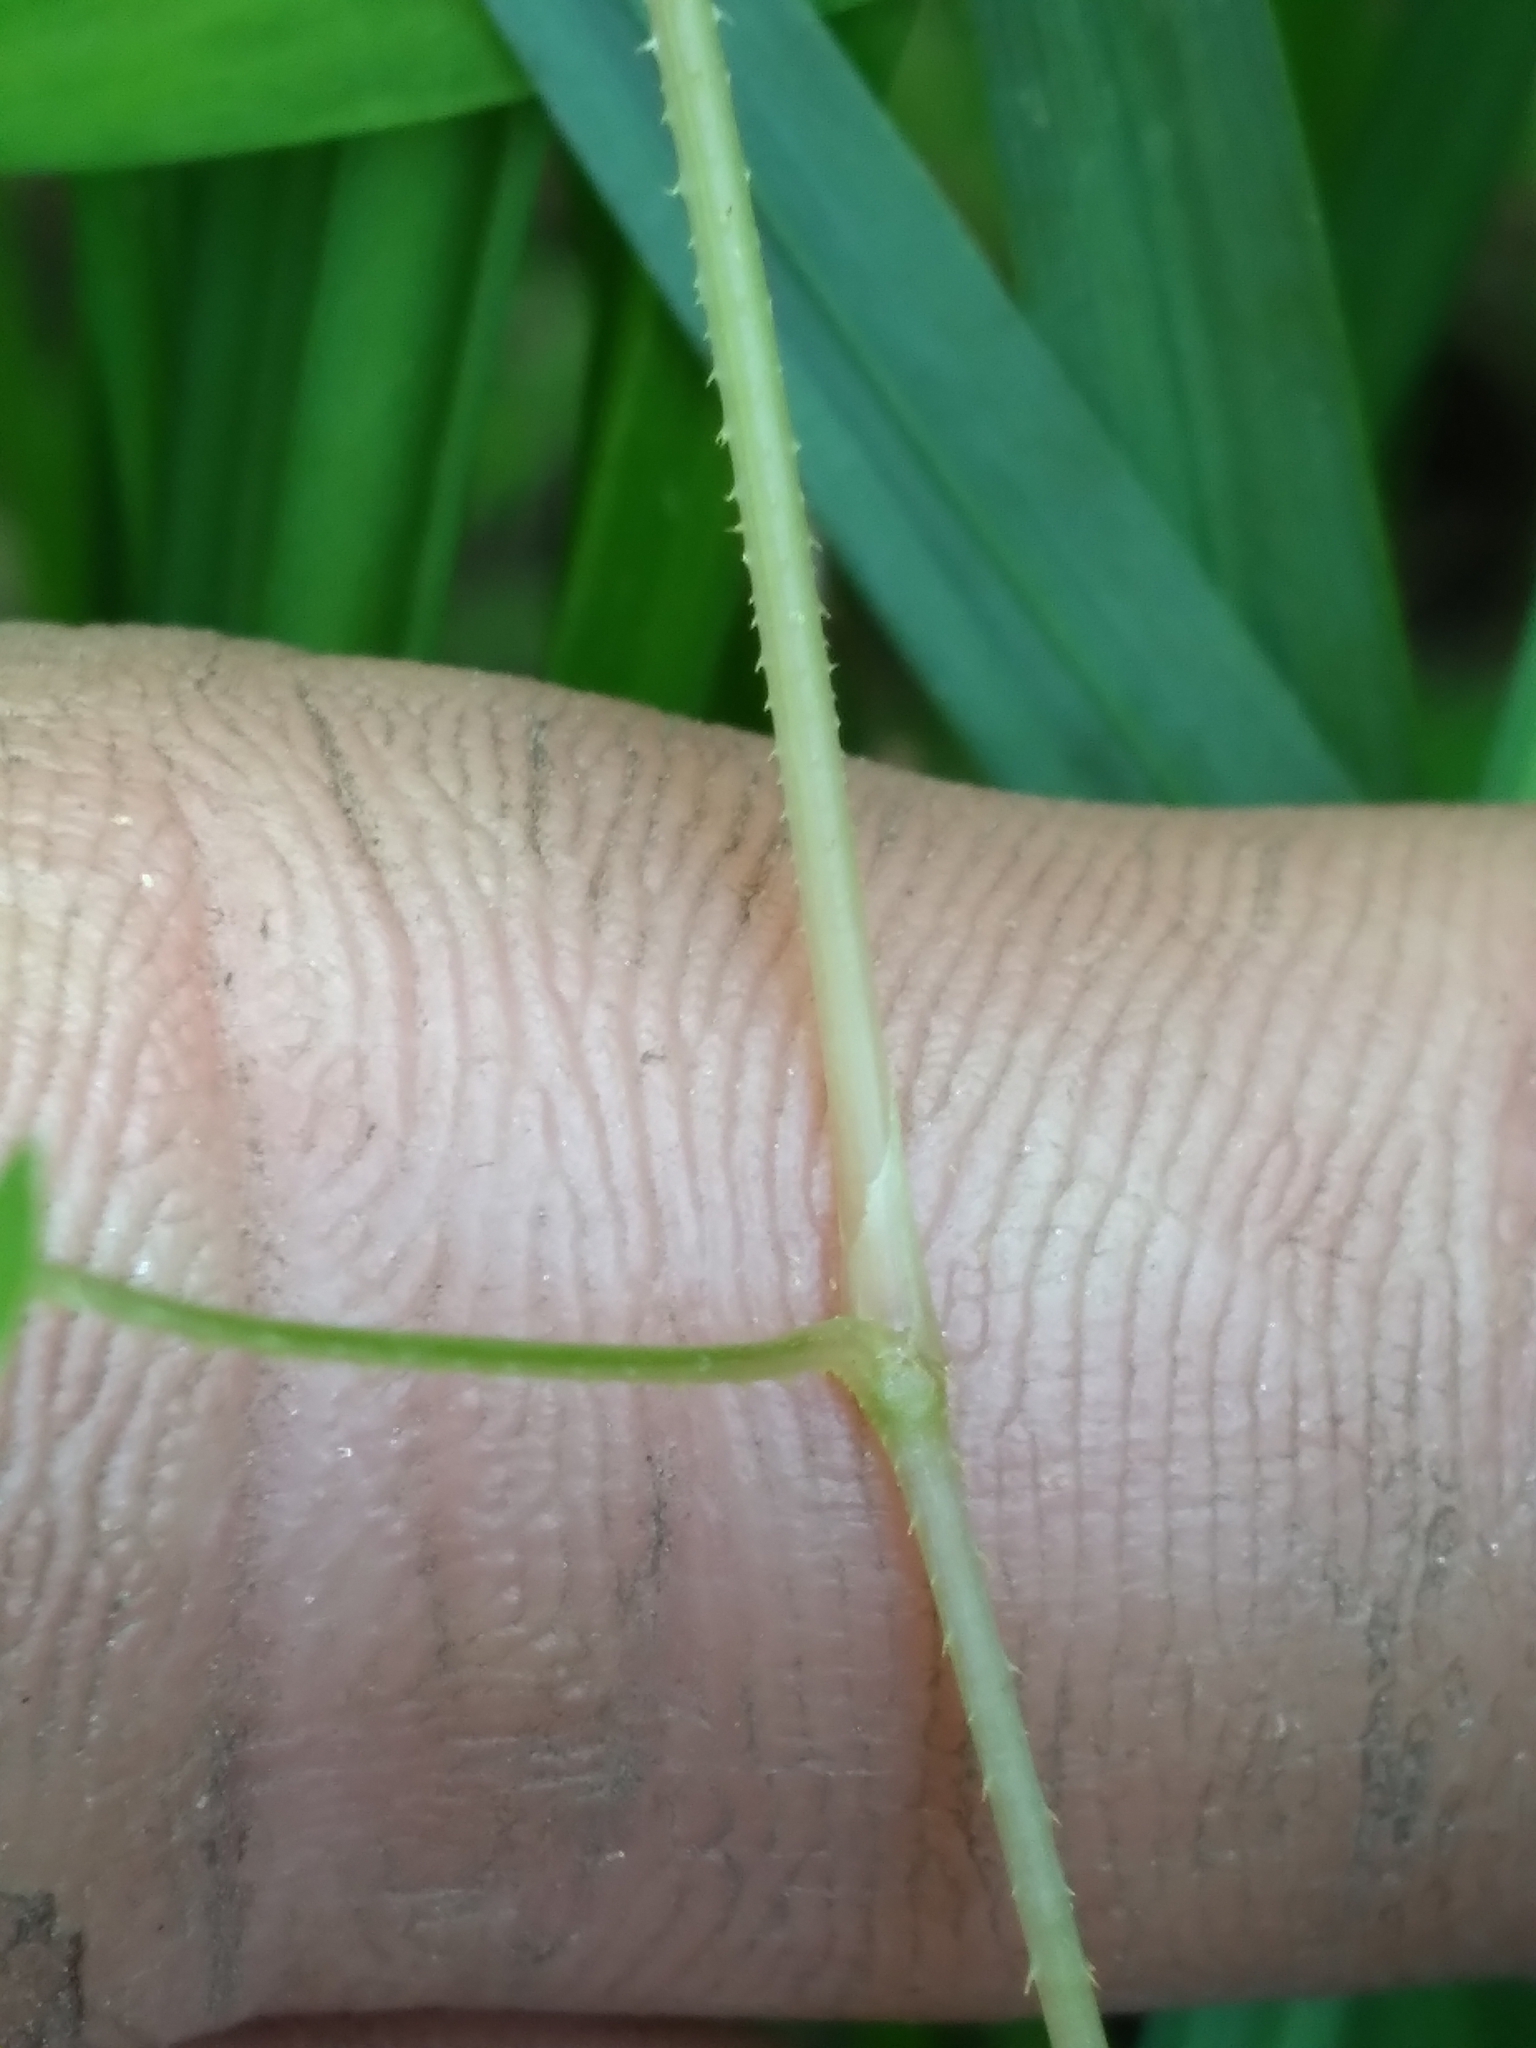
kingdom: Plantae
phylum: Tracheophyta
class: Magnoliopsida
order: Caryophyllales
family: Polygonaceae
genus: Persicaria
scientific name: Persicaria sagittata
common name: American tearthumb
